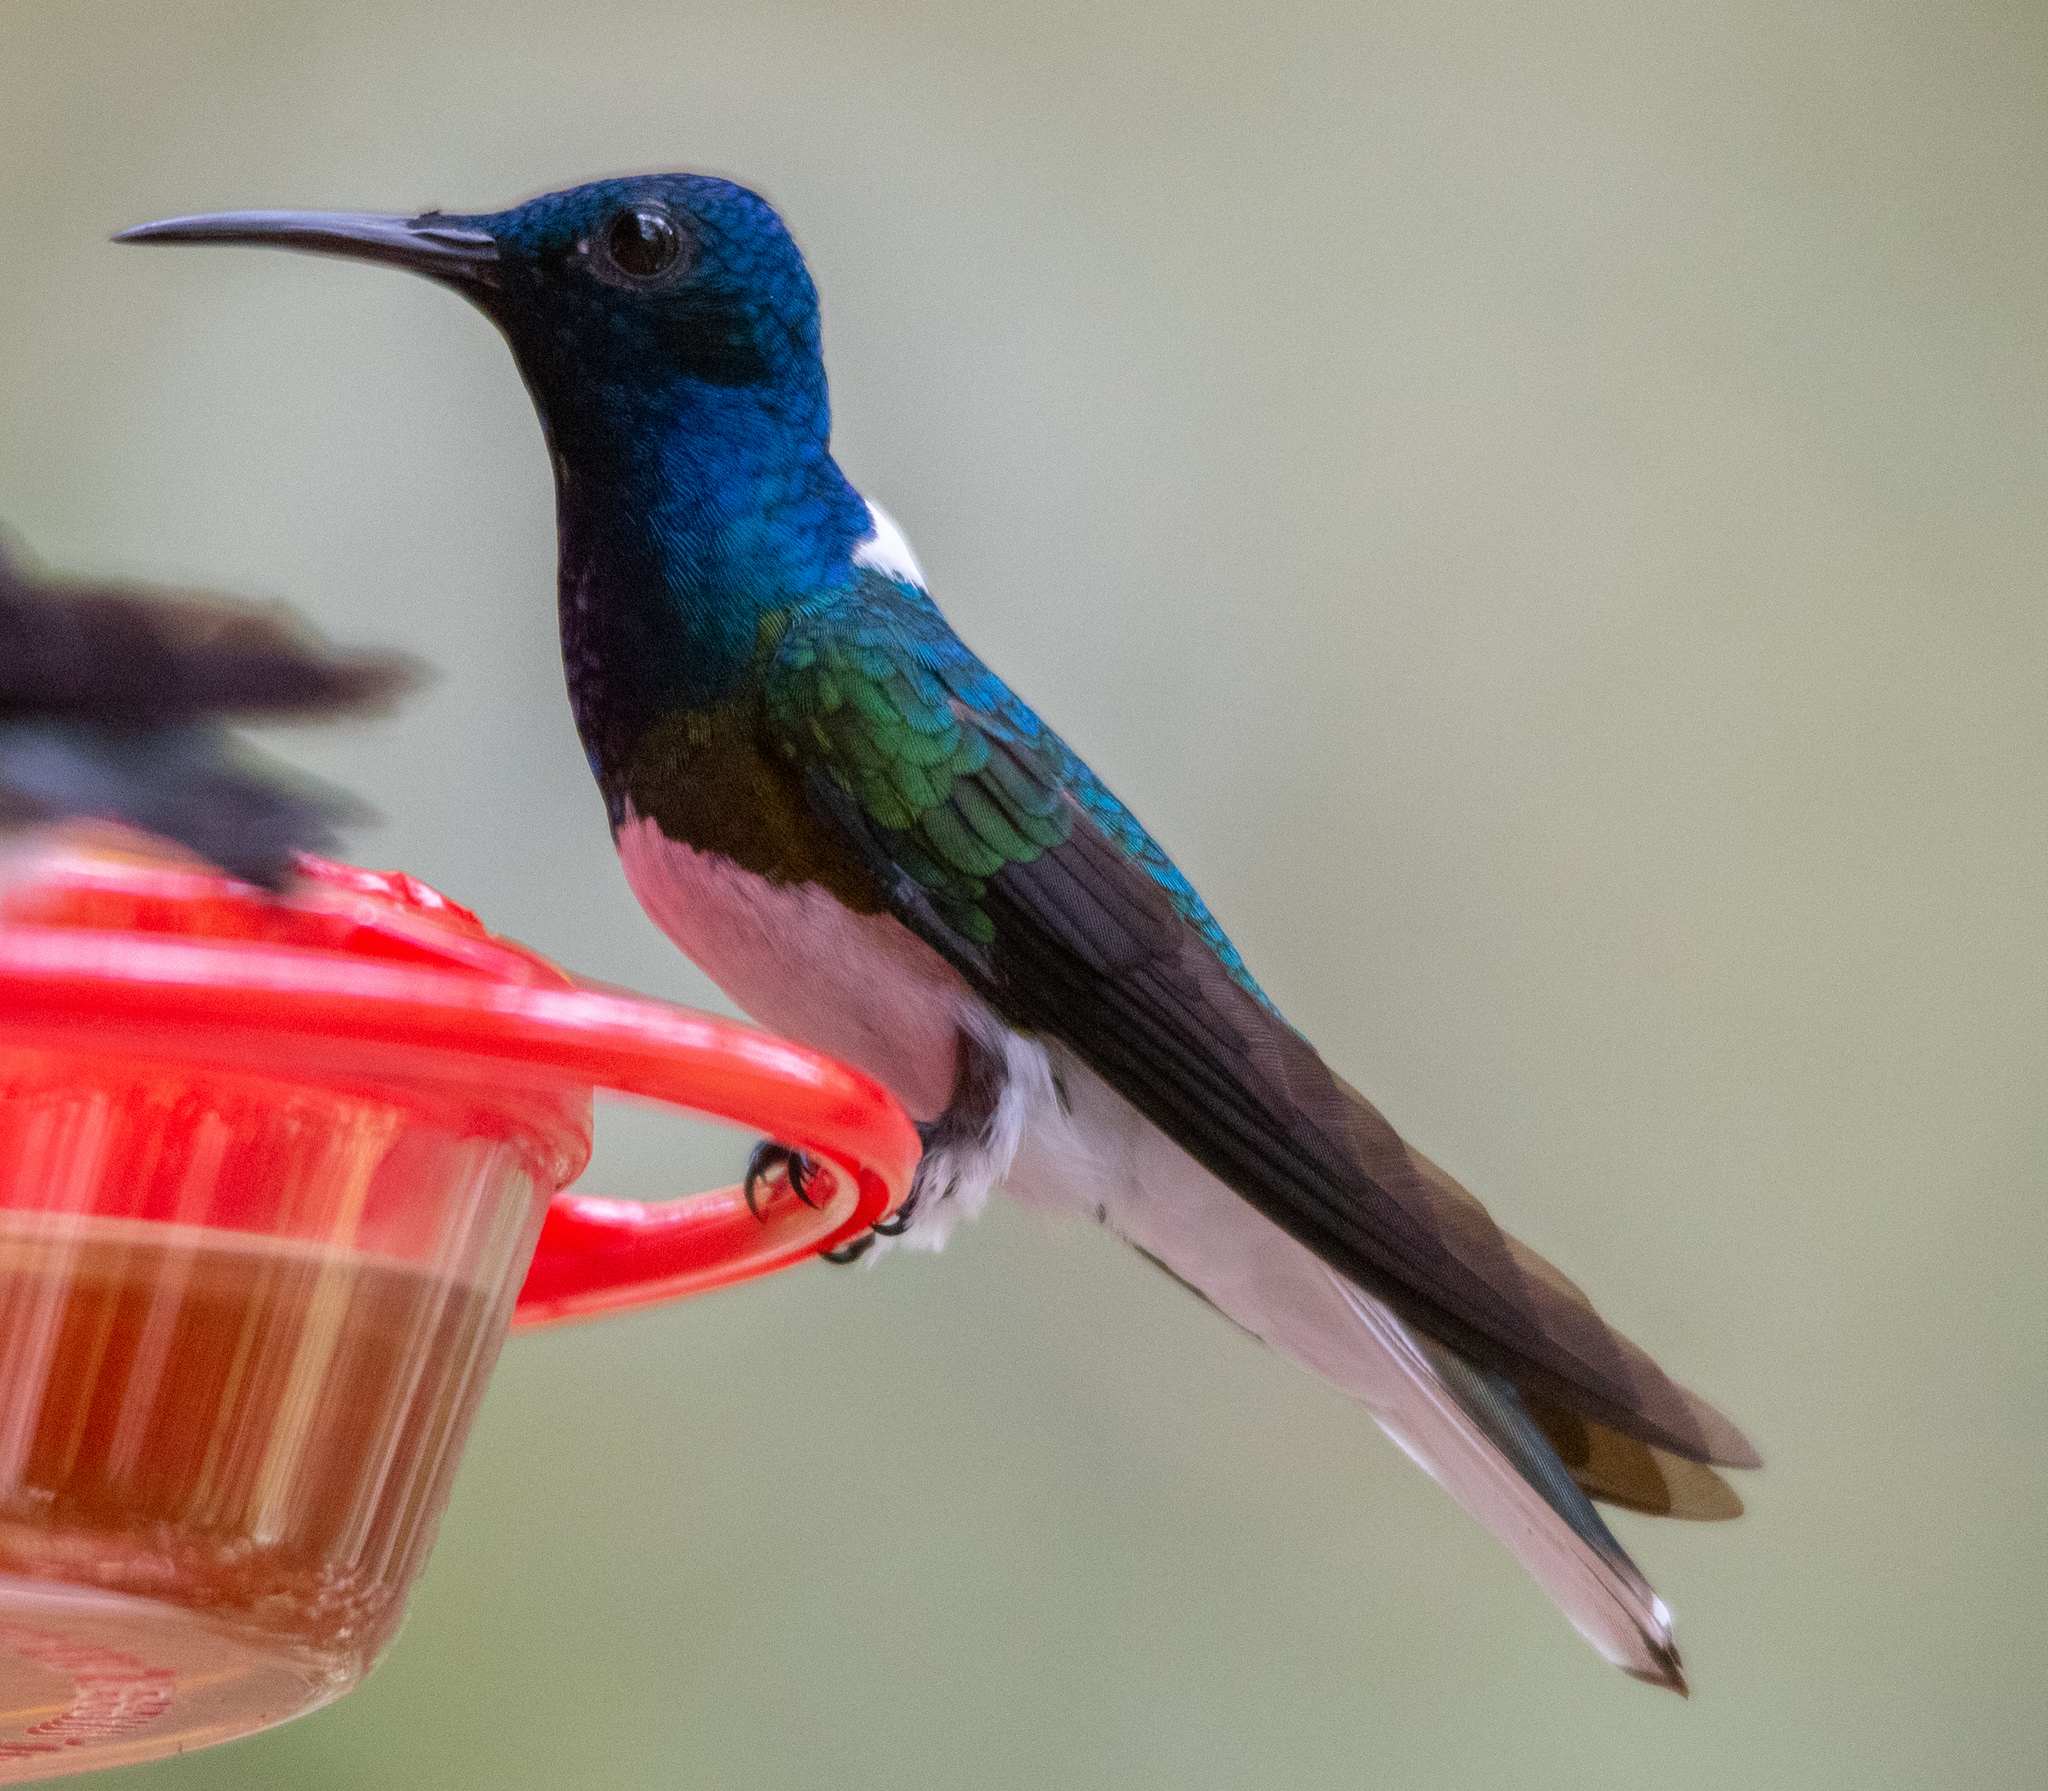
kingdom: Animalia
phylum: Chordata
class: Aves
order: Apodiformes
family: Trochilidae
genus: Florisuga
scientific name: Florisuga mellivora
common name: White-necked jacobin
